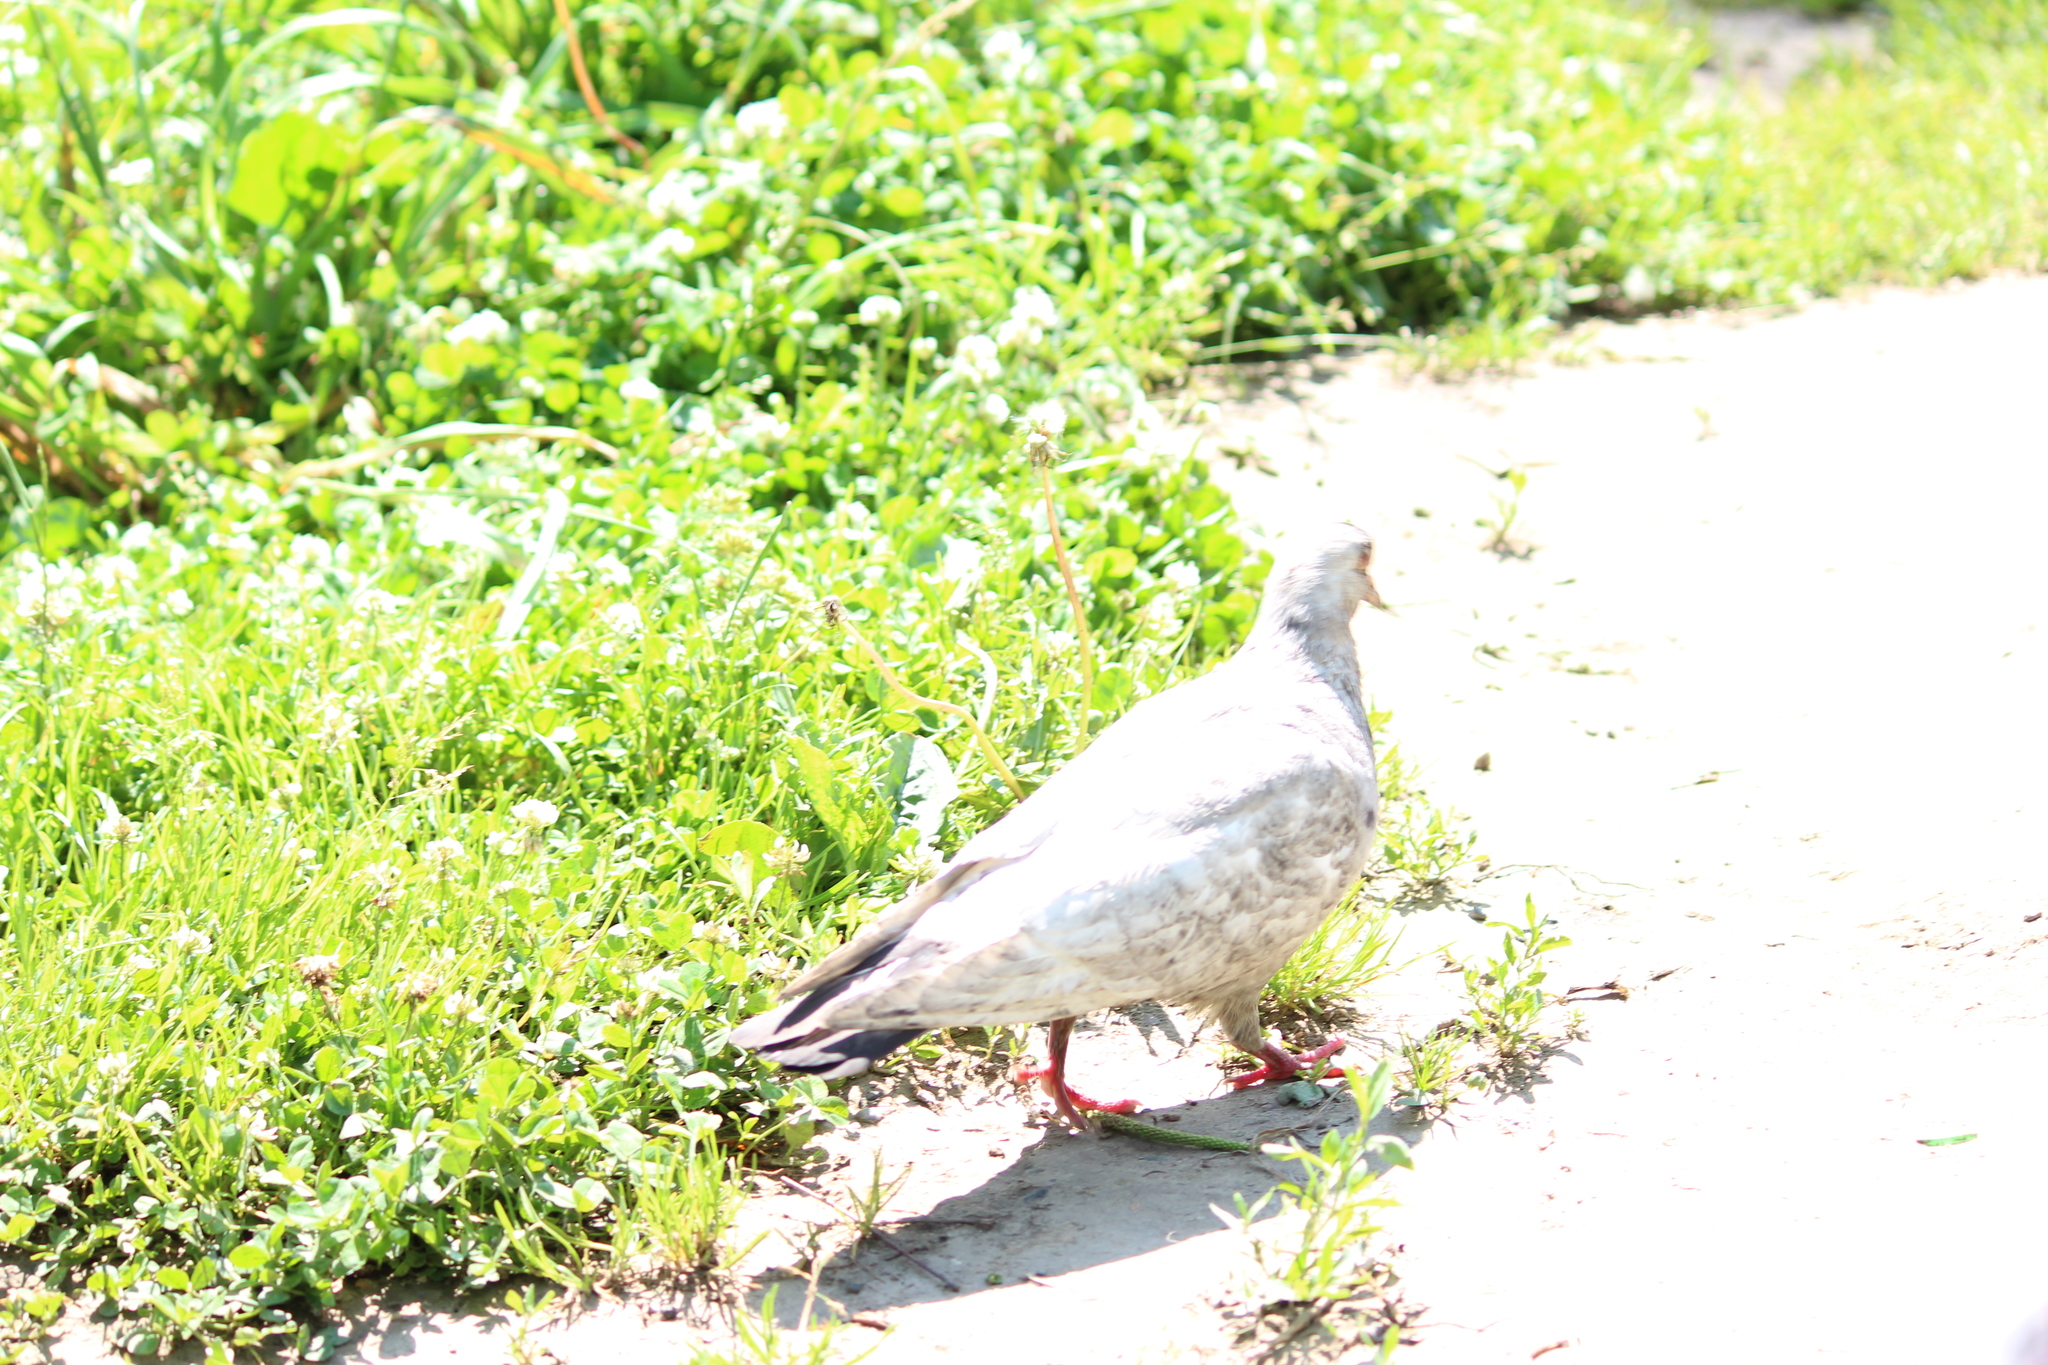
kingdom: Animalia
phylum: Chordata
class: Aves
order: Columbiformes
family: Columbidae
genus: Columba
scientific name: Columba livia
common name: Rock pigeon
